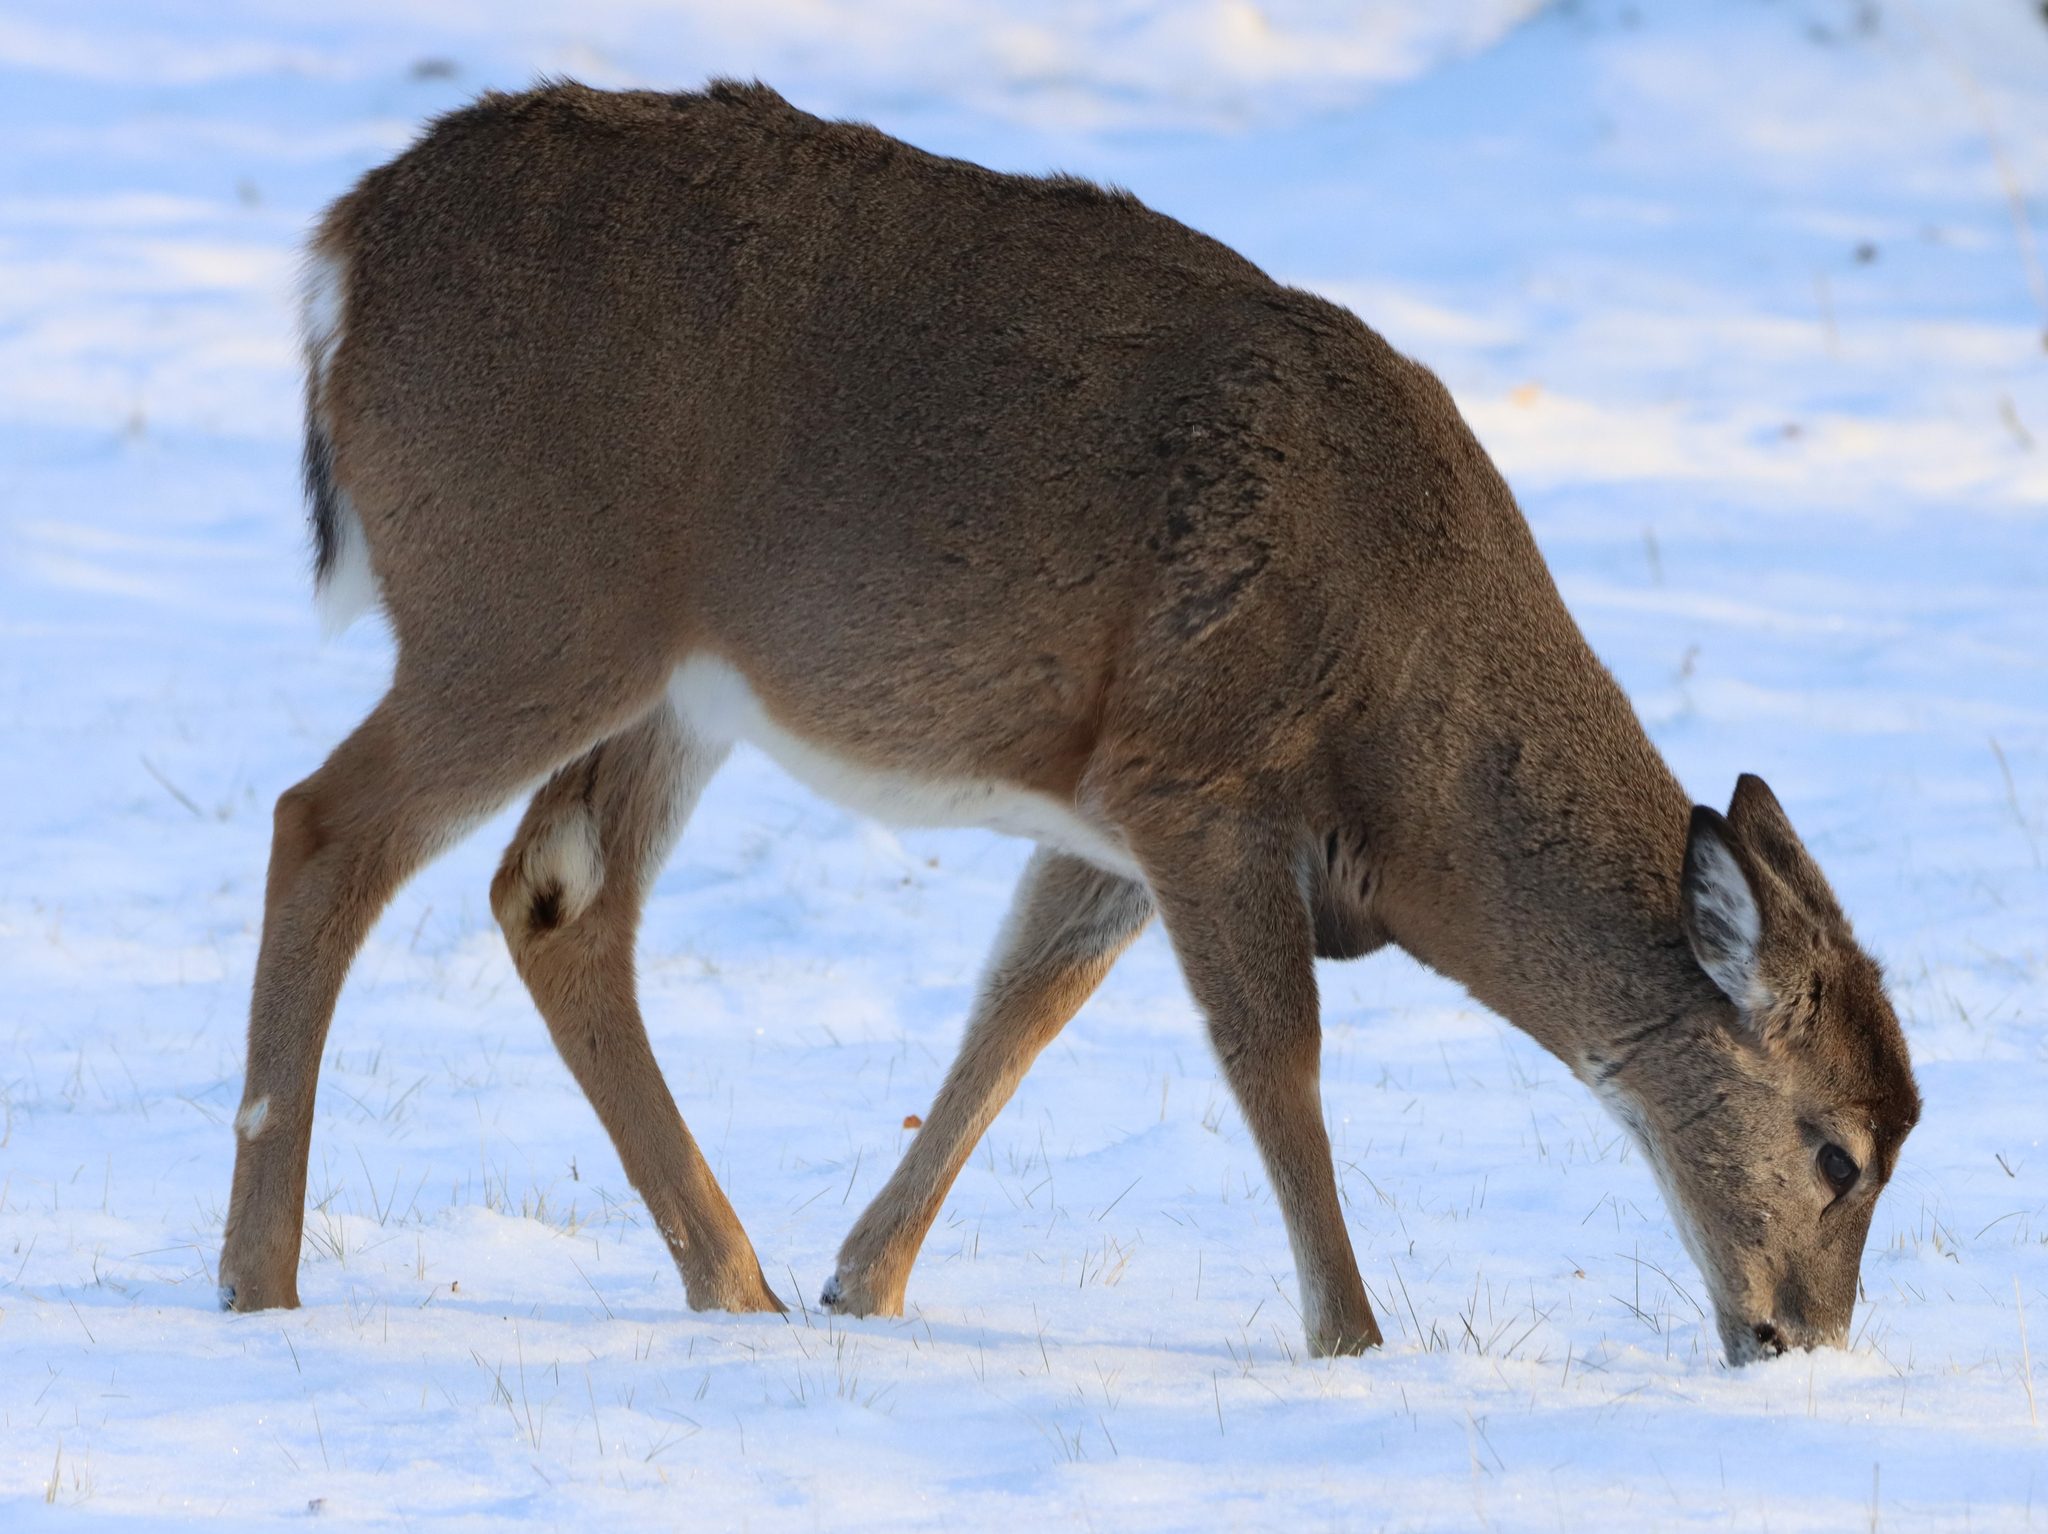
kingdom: Animalia
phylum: Chordata
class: Mammalia
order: Artiodactyla
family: Cervidae
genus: Odocoileus
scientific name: Odocoileus virginianus
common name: White-tailed deer
